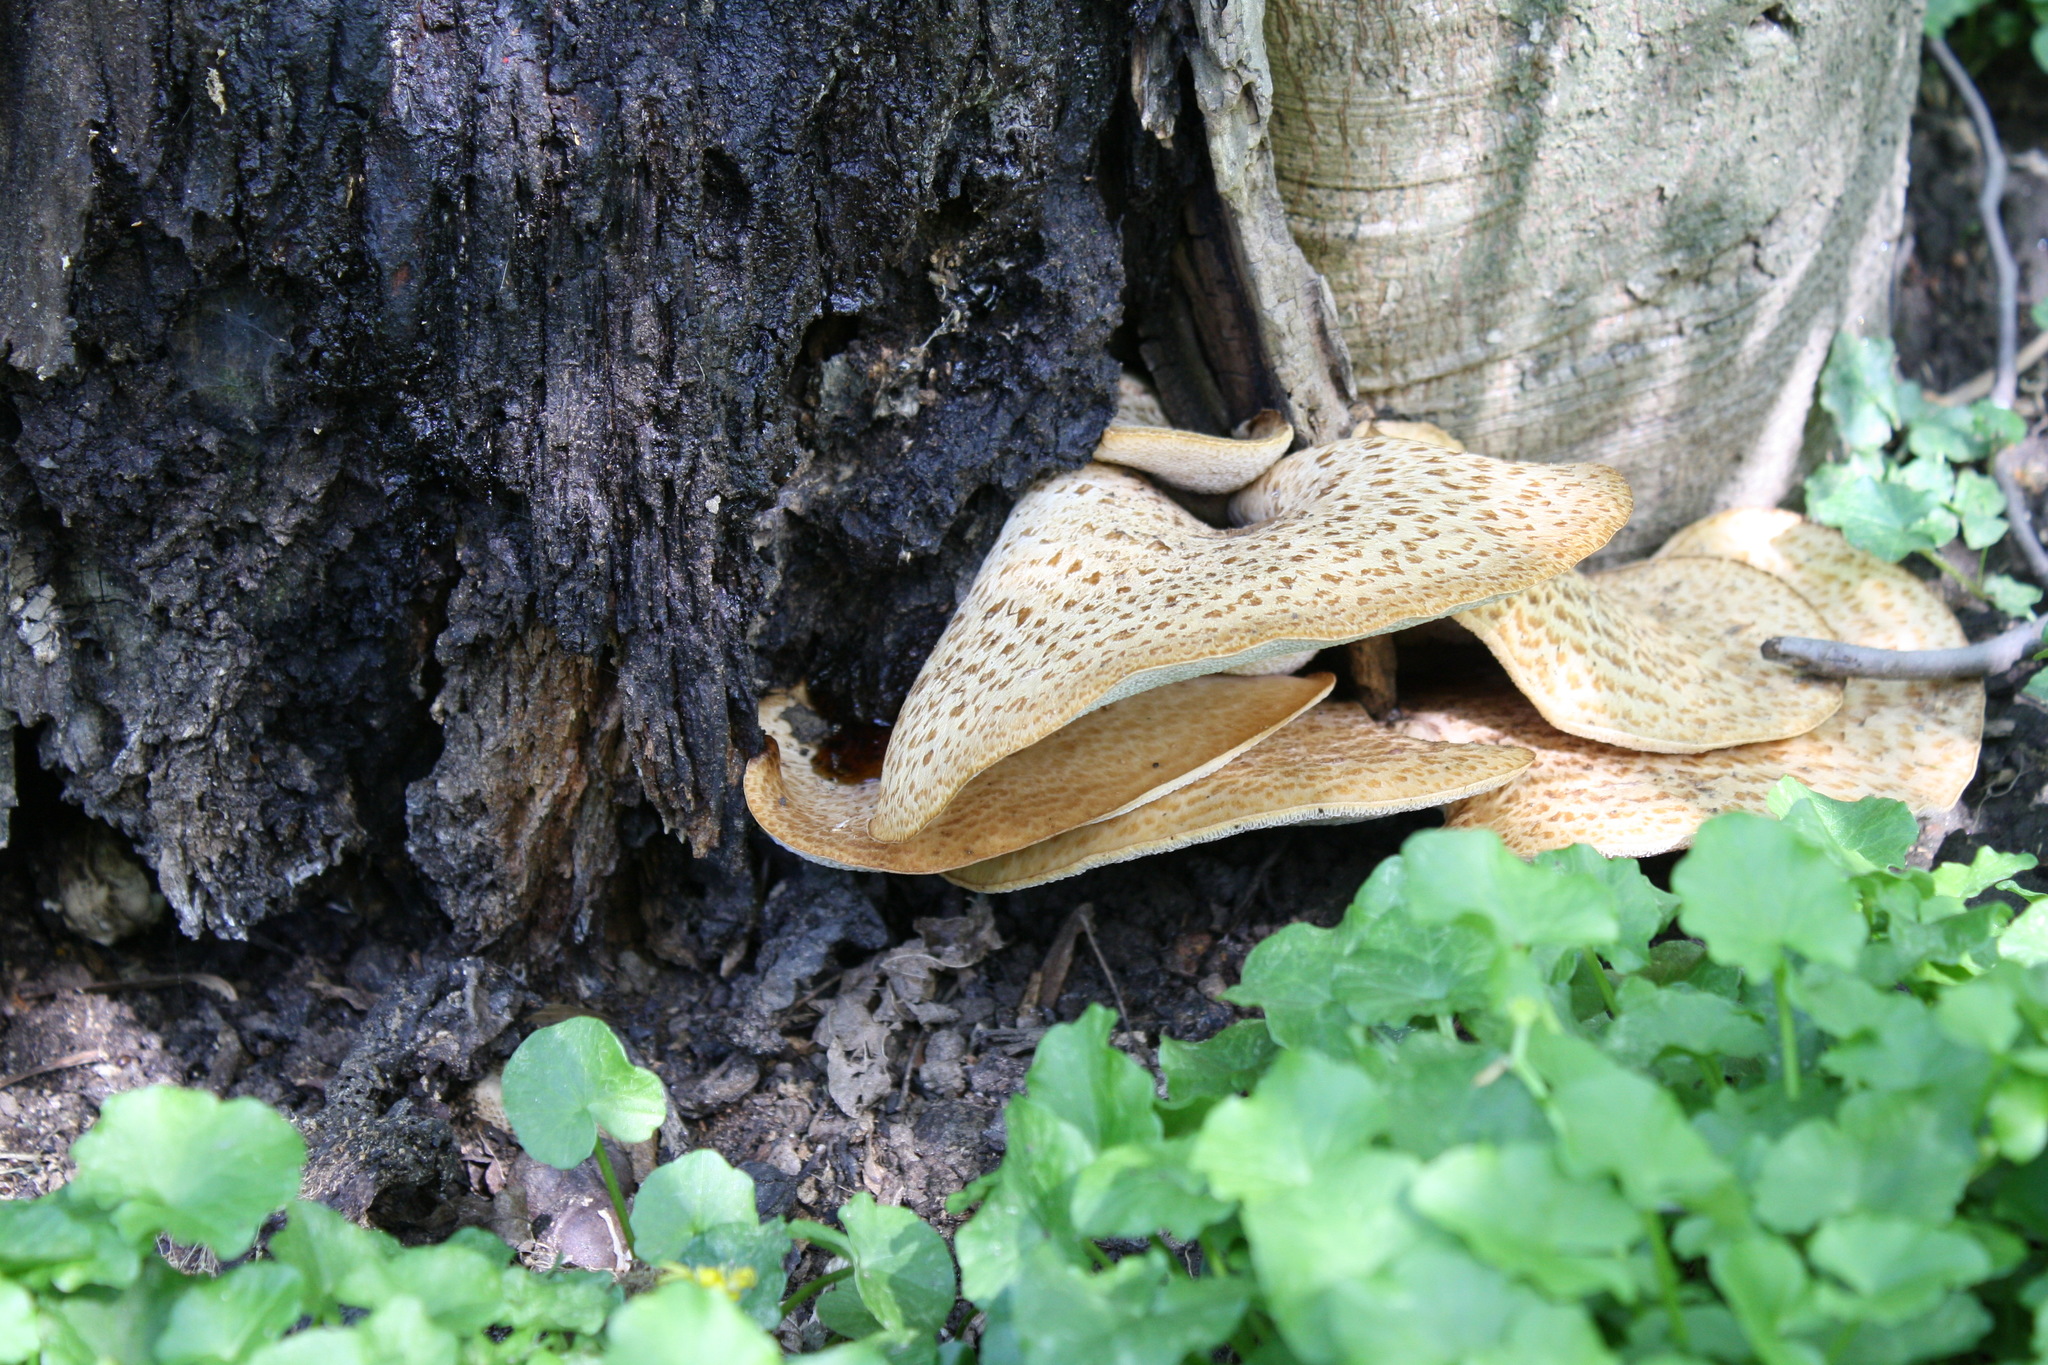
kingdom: Fungi
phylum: Basidiomycota
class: Agaricomycetes
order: Polyporales
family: Polyporaceae
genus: Cerioporus
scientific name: Cerioporus squamosus
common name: Dryad's saddle
